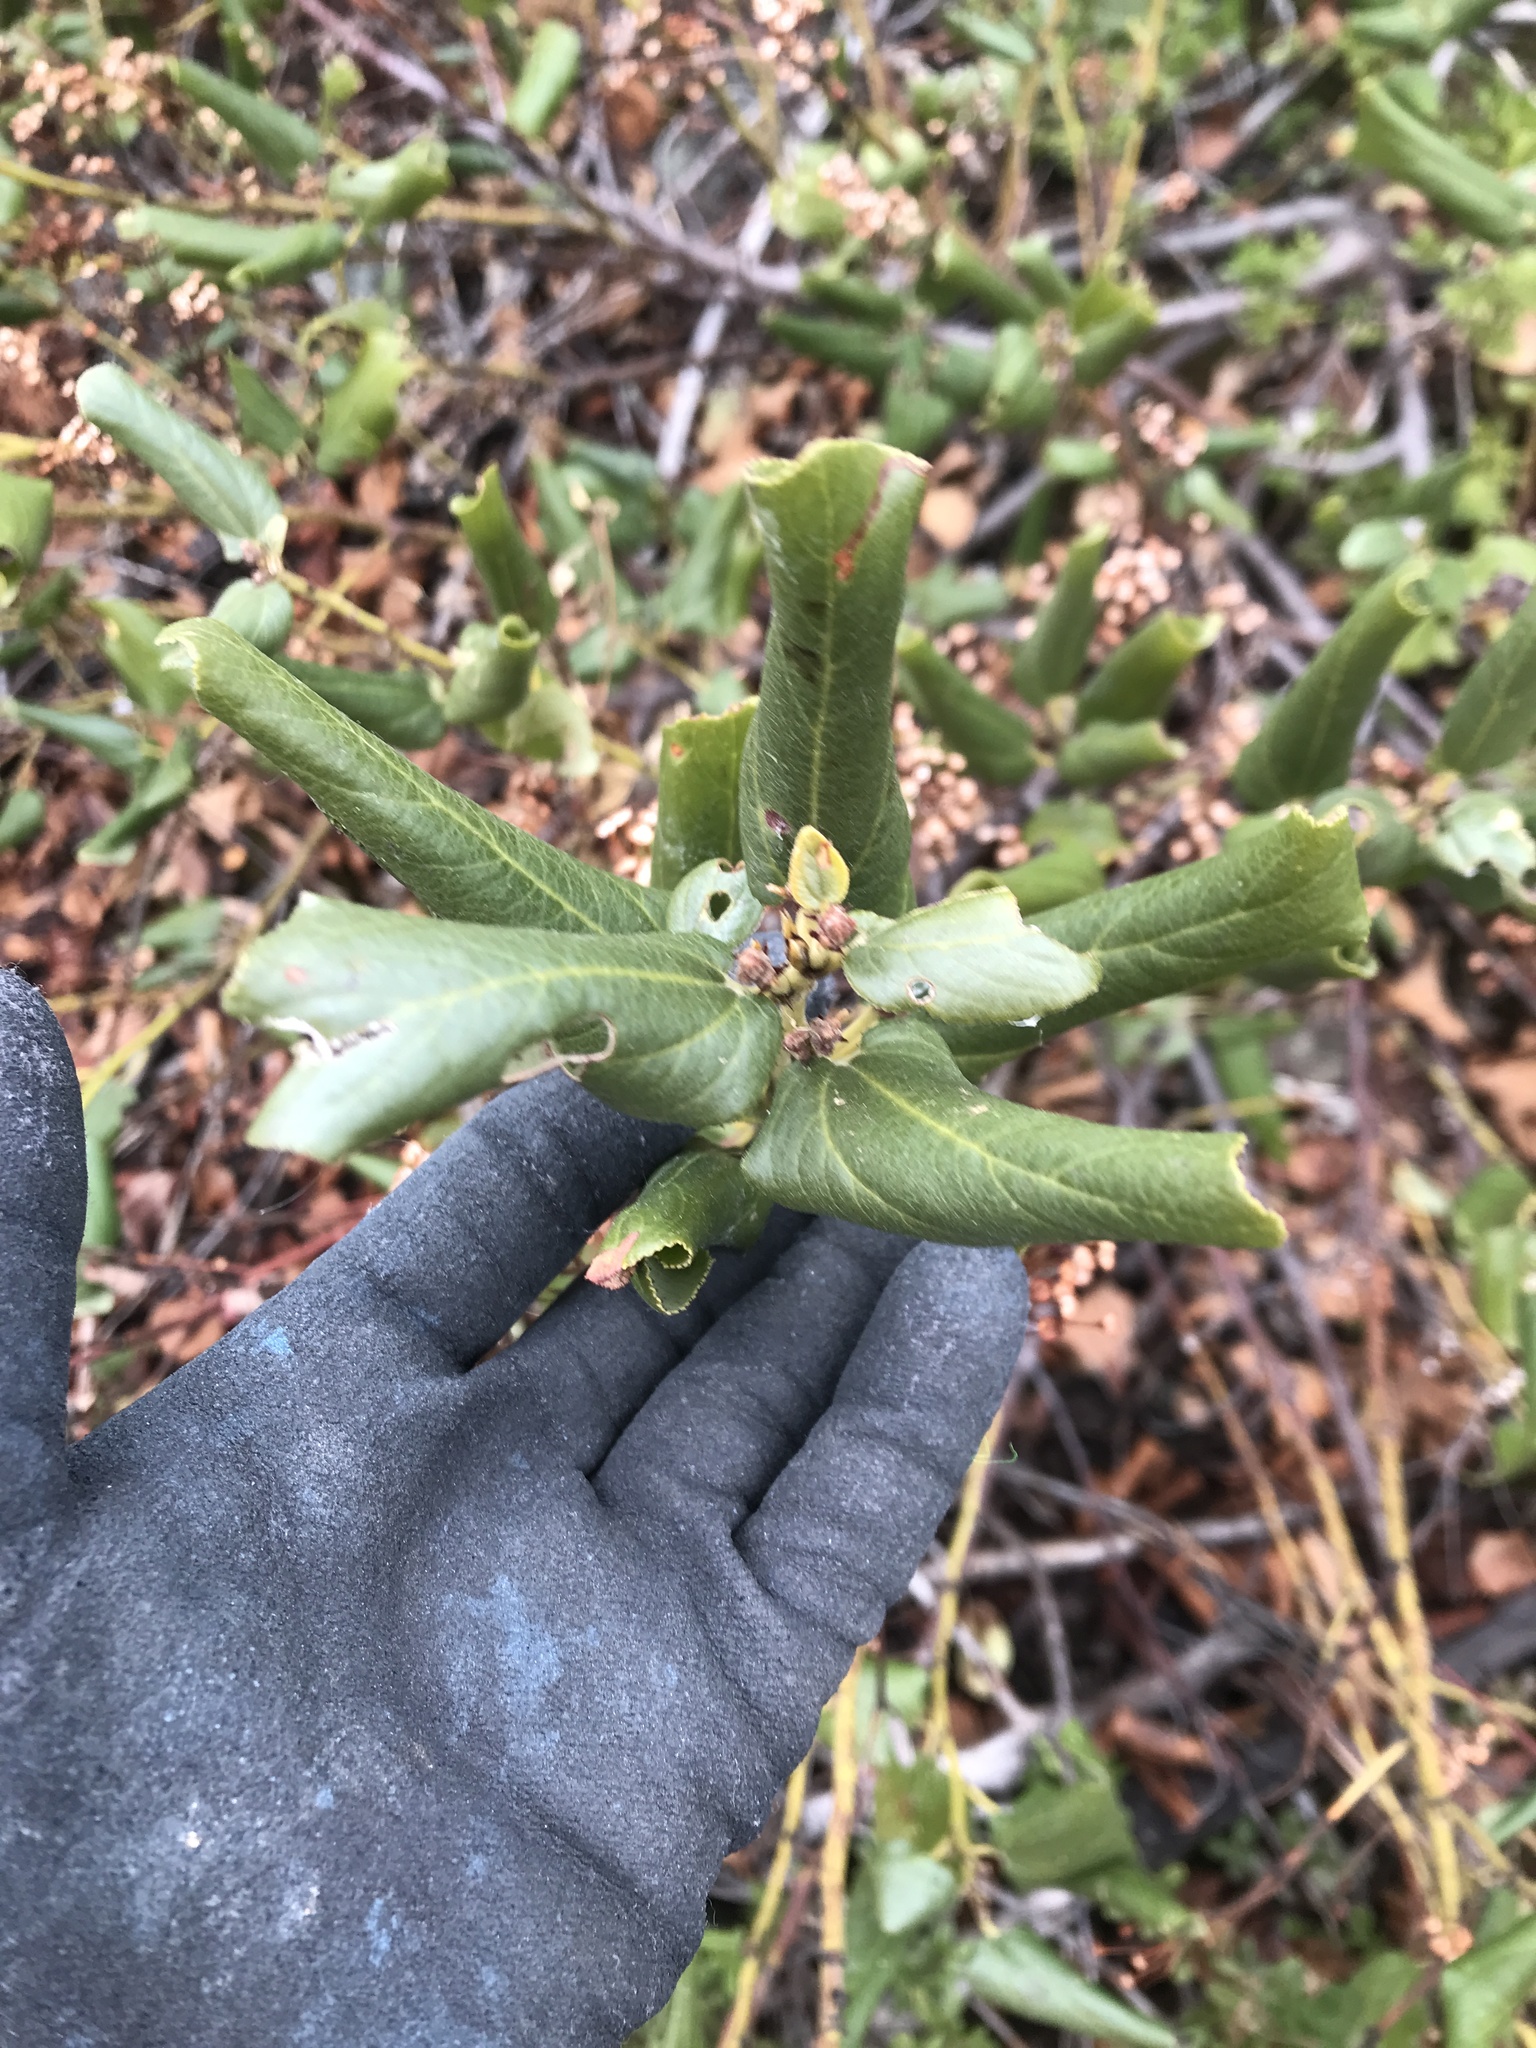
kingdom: Plantae
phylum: Tracheophyta
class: Magnoliopsida
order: Rosales
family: Rhamnaceae
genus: Ceanothus
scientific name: Ceanothus velutinus
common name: Snowbrush
